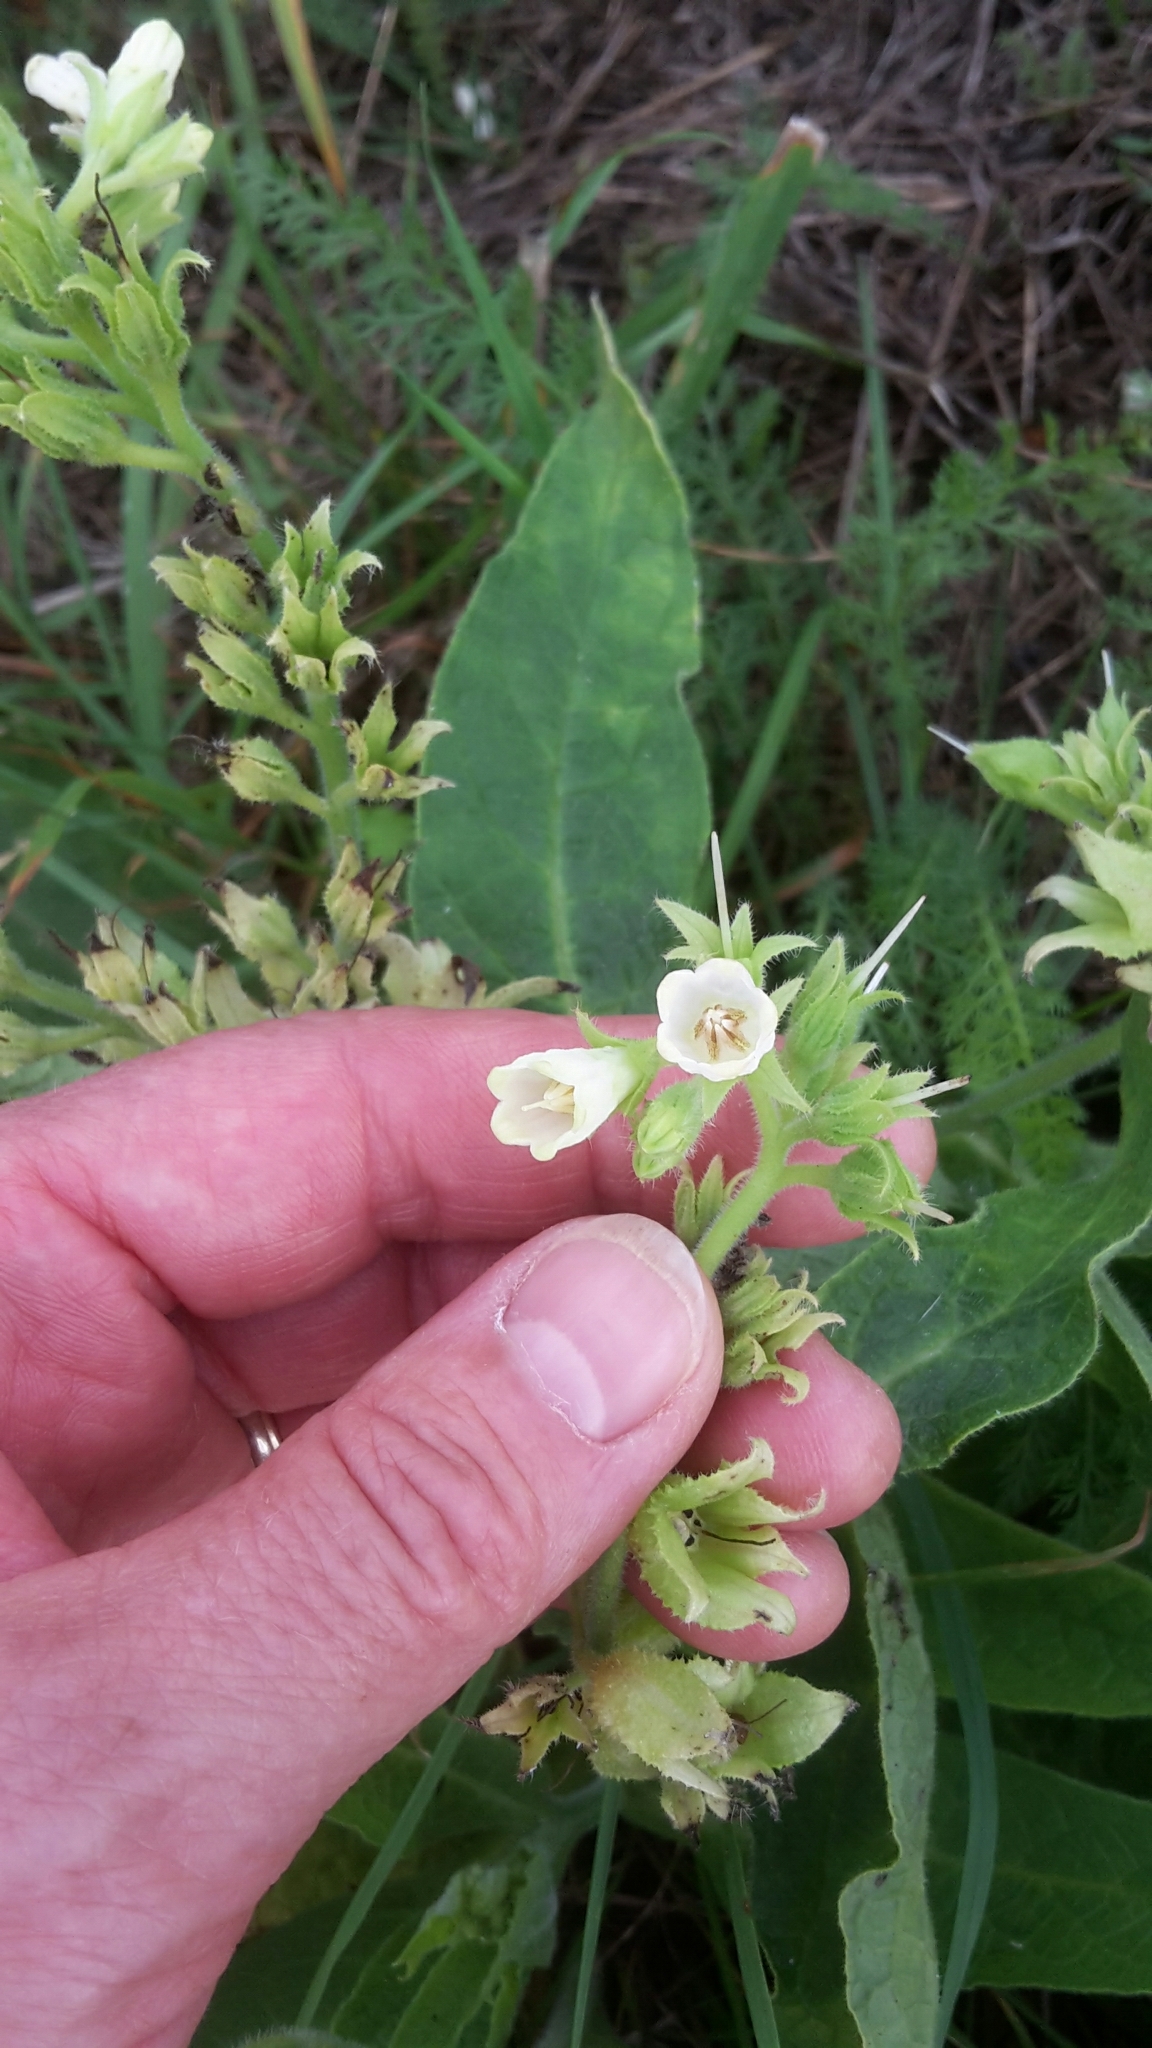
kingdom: Plantae
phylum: Tracheophyta
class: Magnoliopsida
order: Boraginales
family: Boraginaceae
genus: Symphytum
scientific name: Symphytum bohemicum
